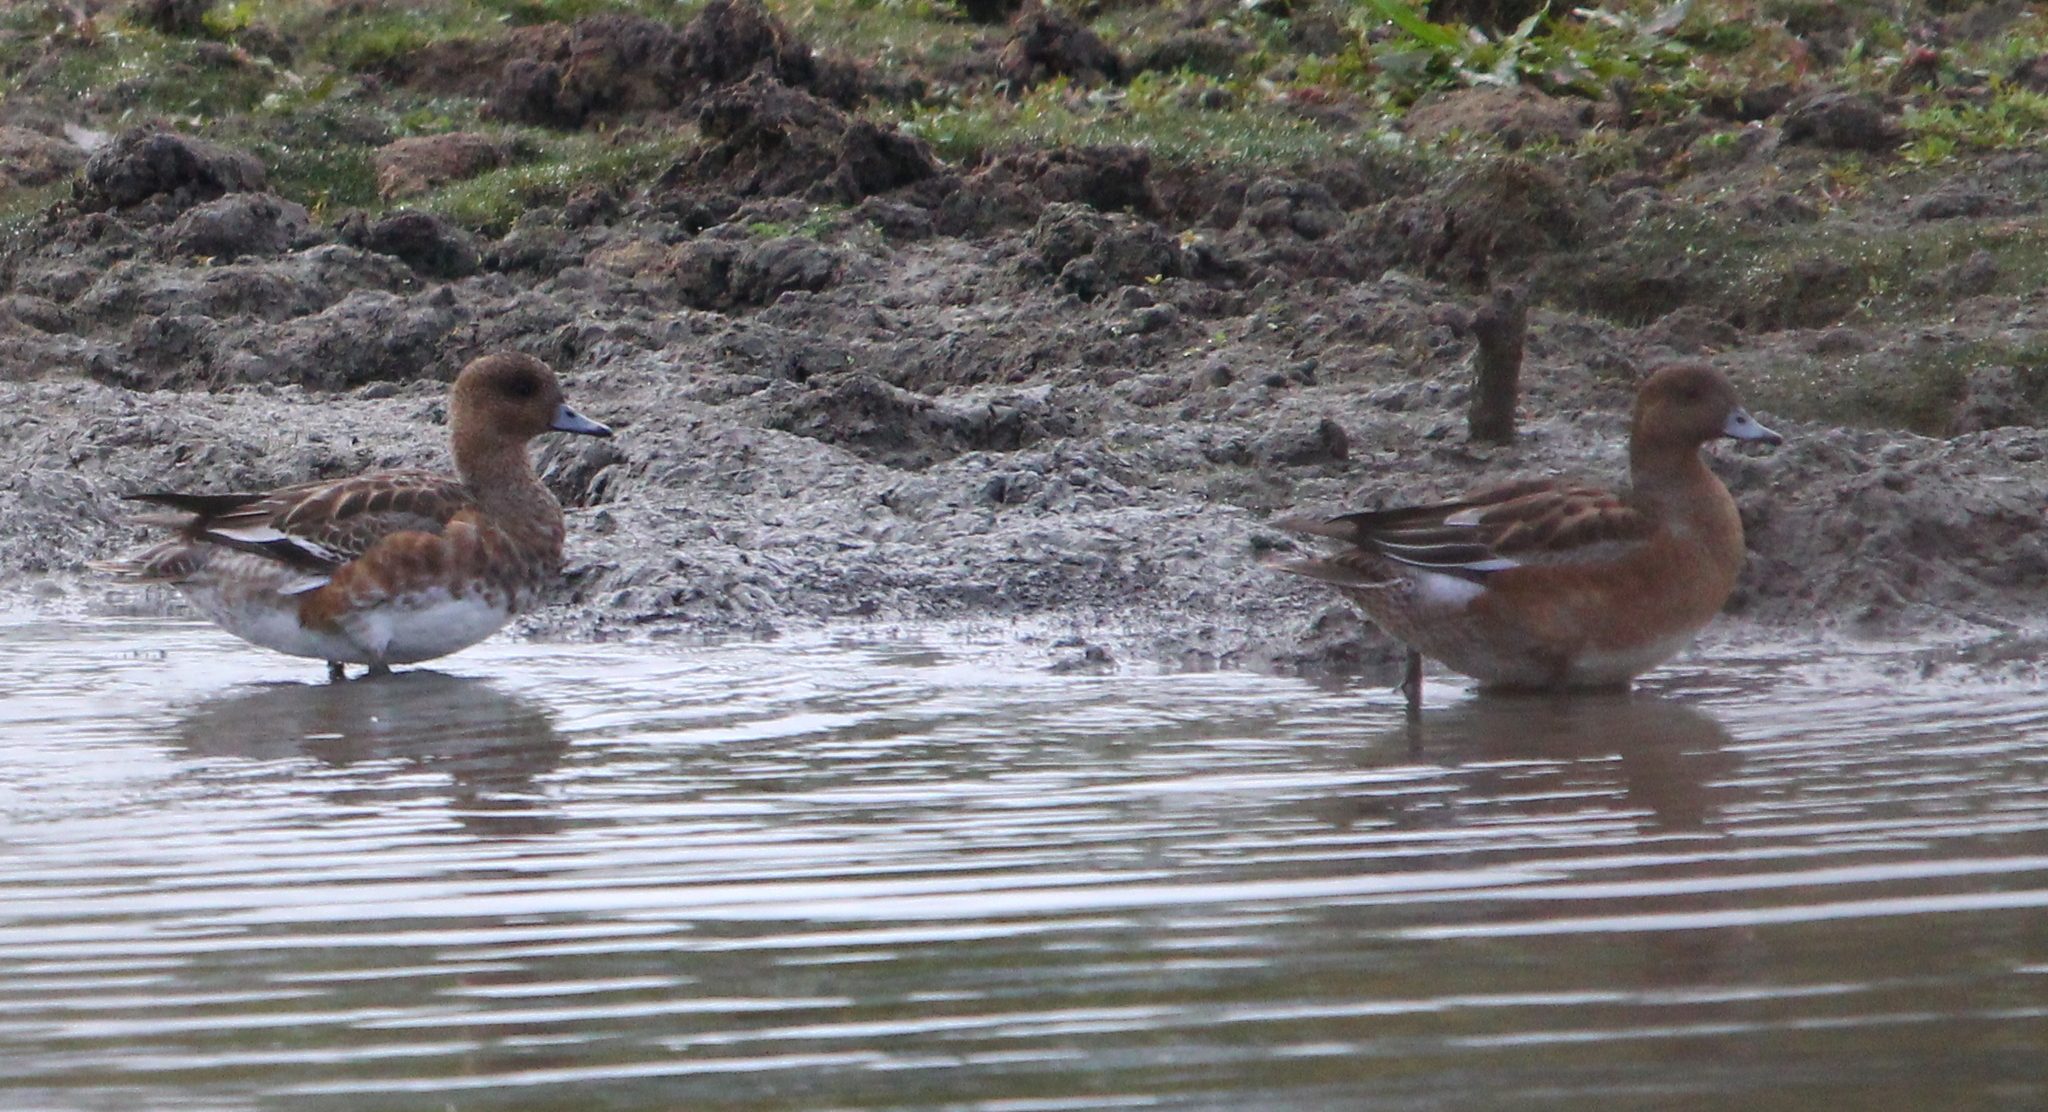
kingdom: Animalia
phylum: Chordata
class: Aves
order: Anseriformes
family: Anatidae
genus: Mareca
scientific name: Mareca penelope
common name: Eurasian wigeon
